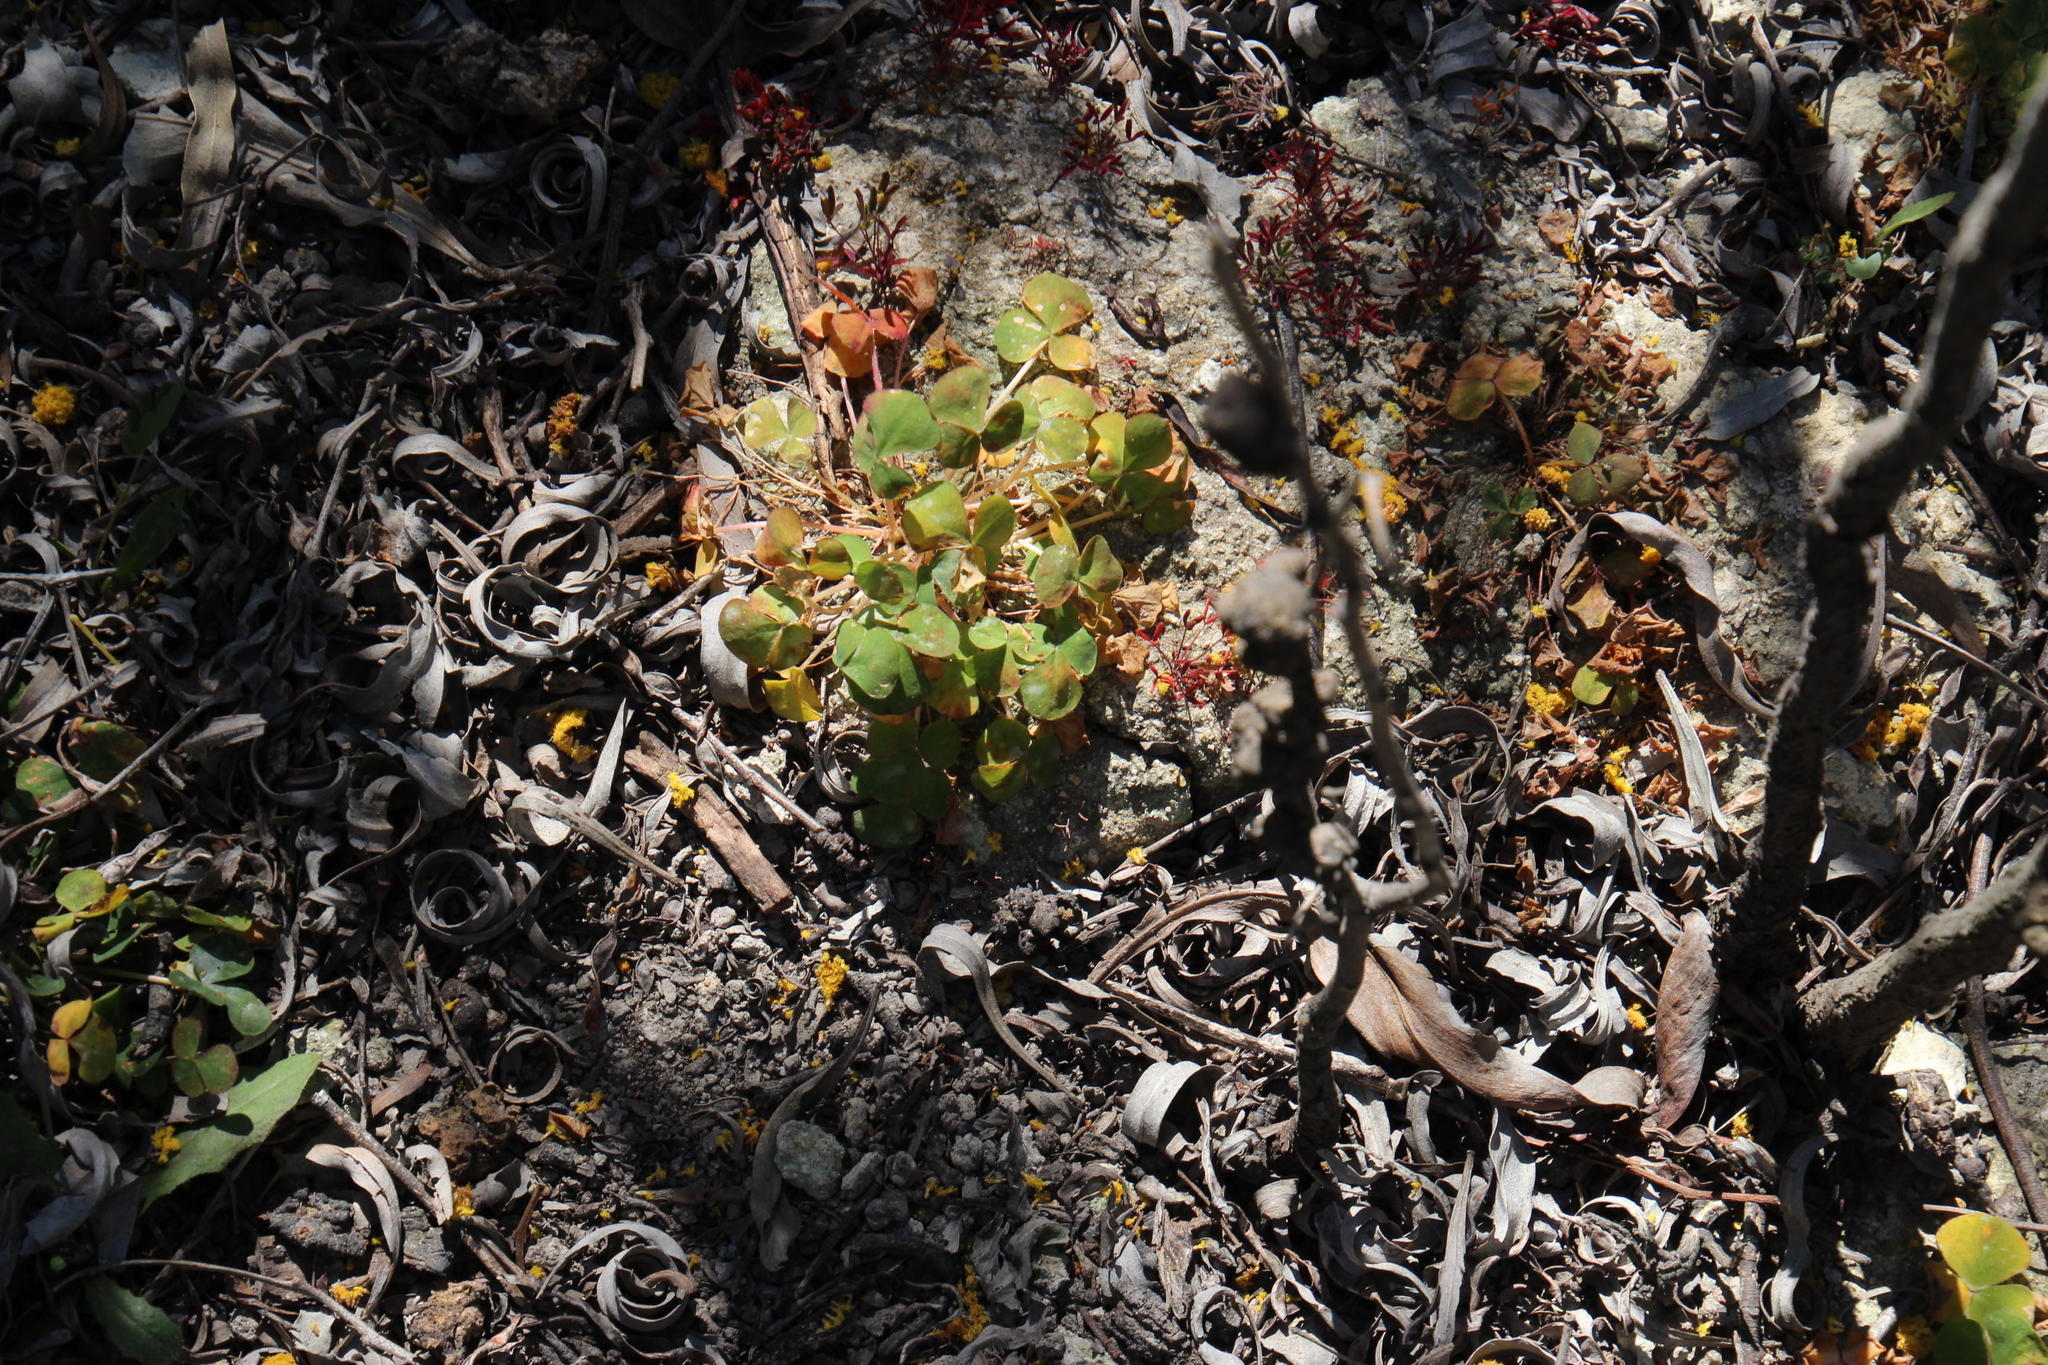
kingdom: Plantae
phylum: Tracheophyta
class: Magnoliopsida
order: Oxalidales
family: Oxalidaceae
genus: Oxalis
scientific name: Oxalis purpurea
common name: Purple woodsorrel
